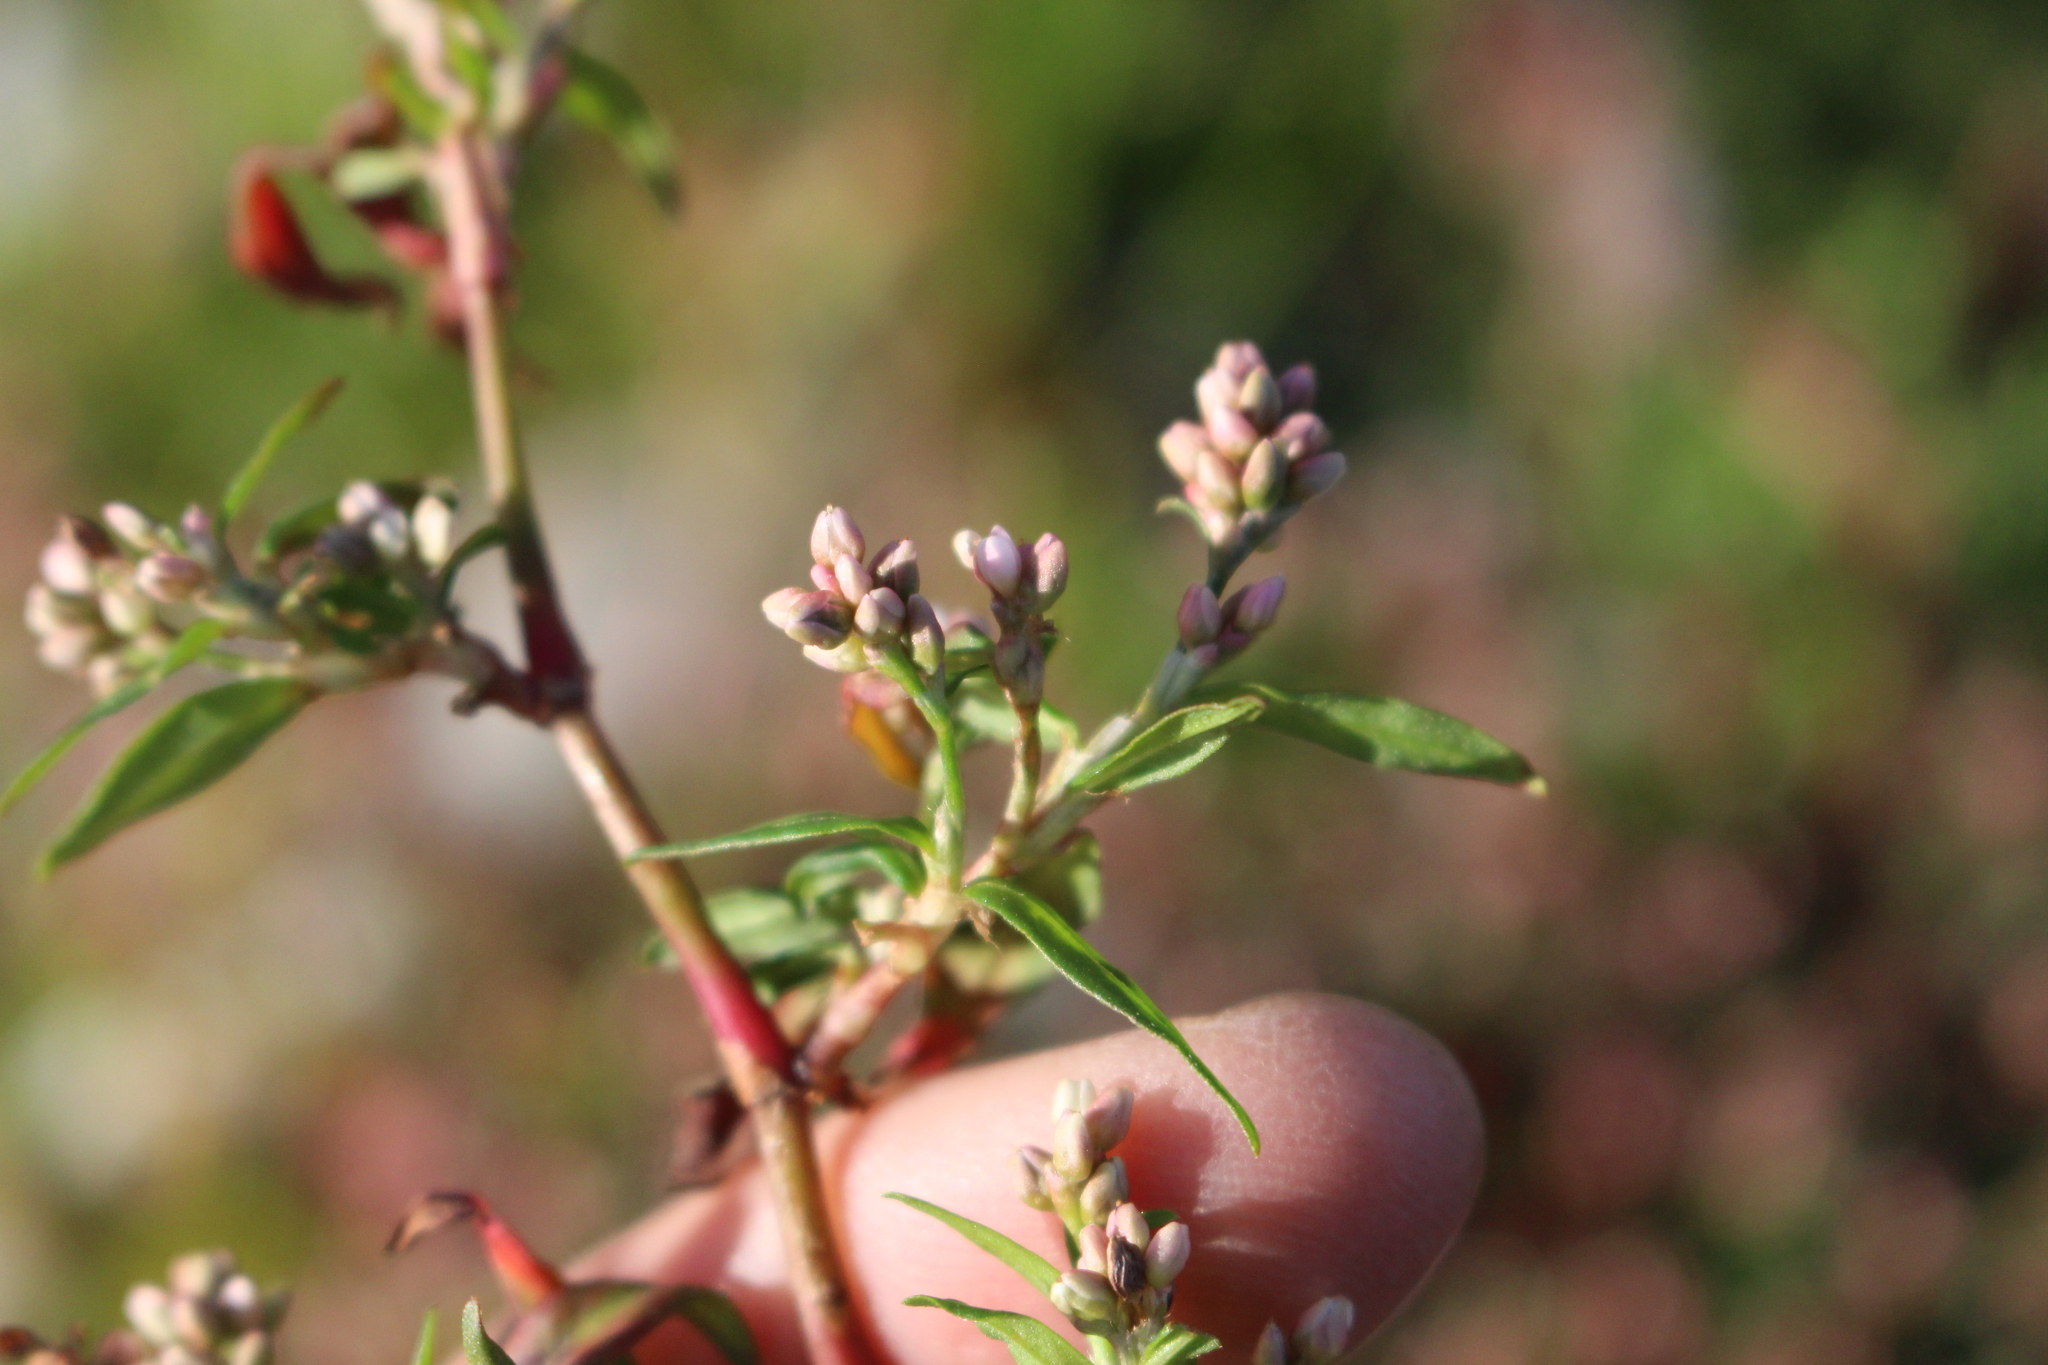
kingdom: Plantae
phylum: Tracheophyta
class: Magnoliopsida
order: Caryophyllales
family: Polygonaceae
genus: Persicaria
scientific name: Persicaria maculosa
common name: Redshank
